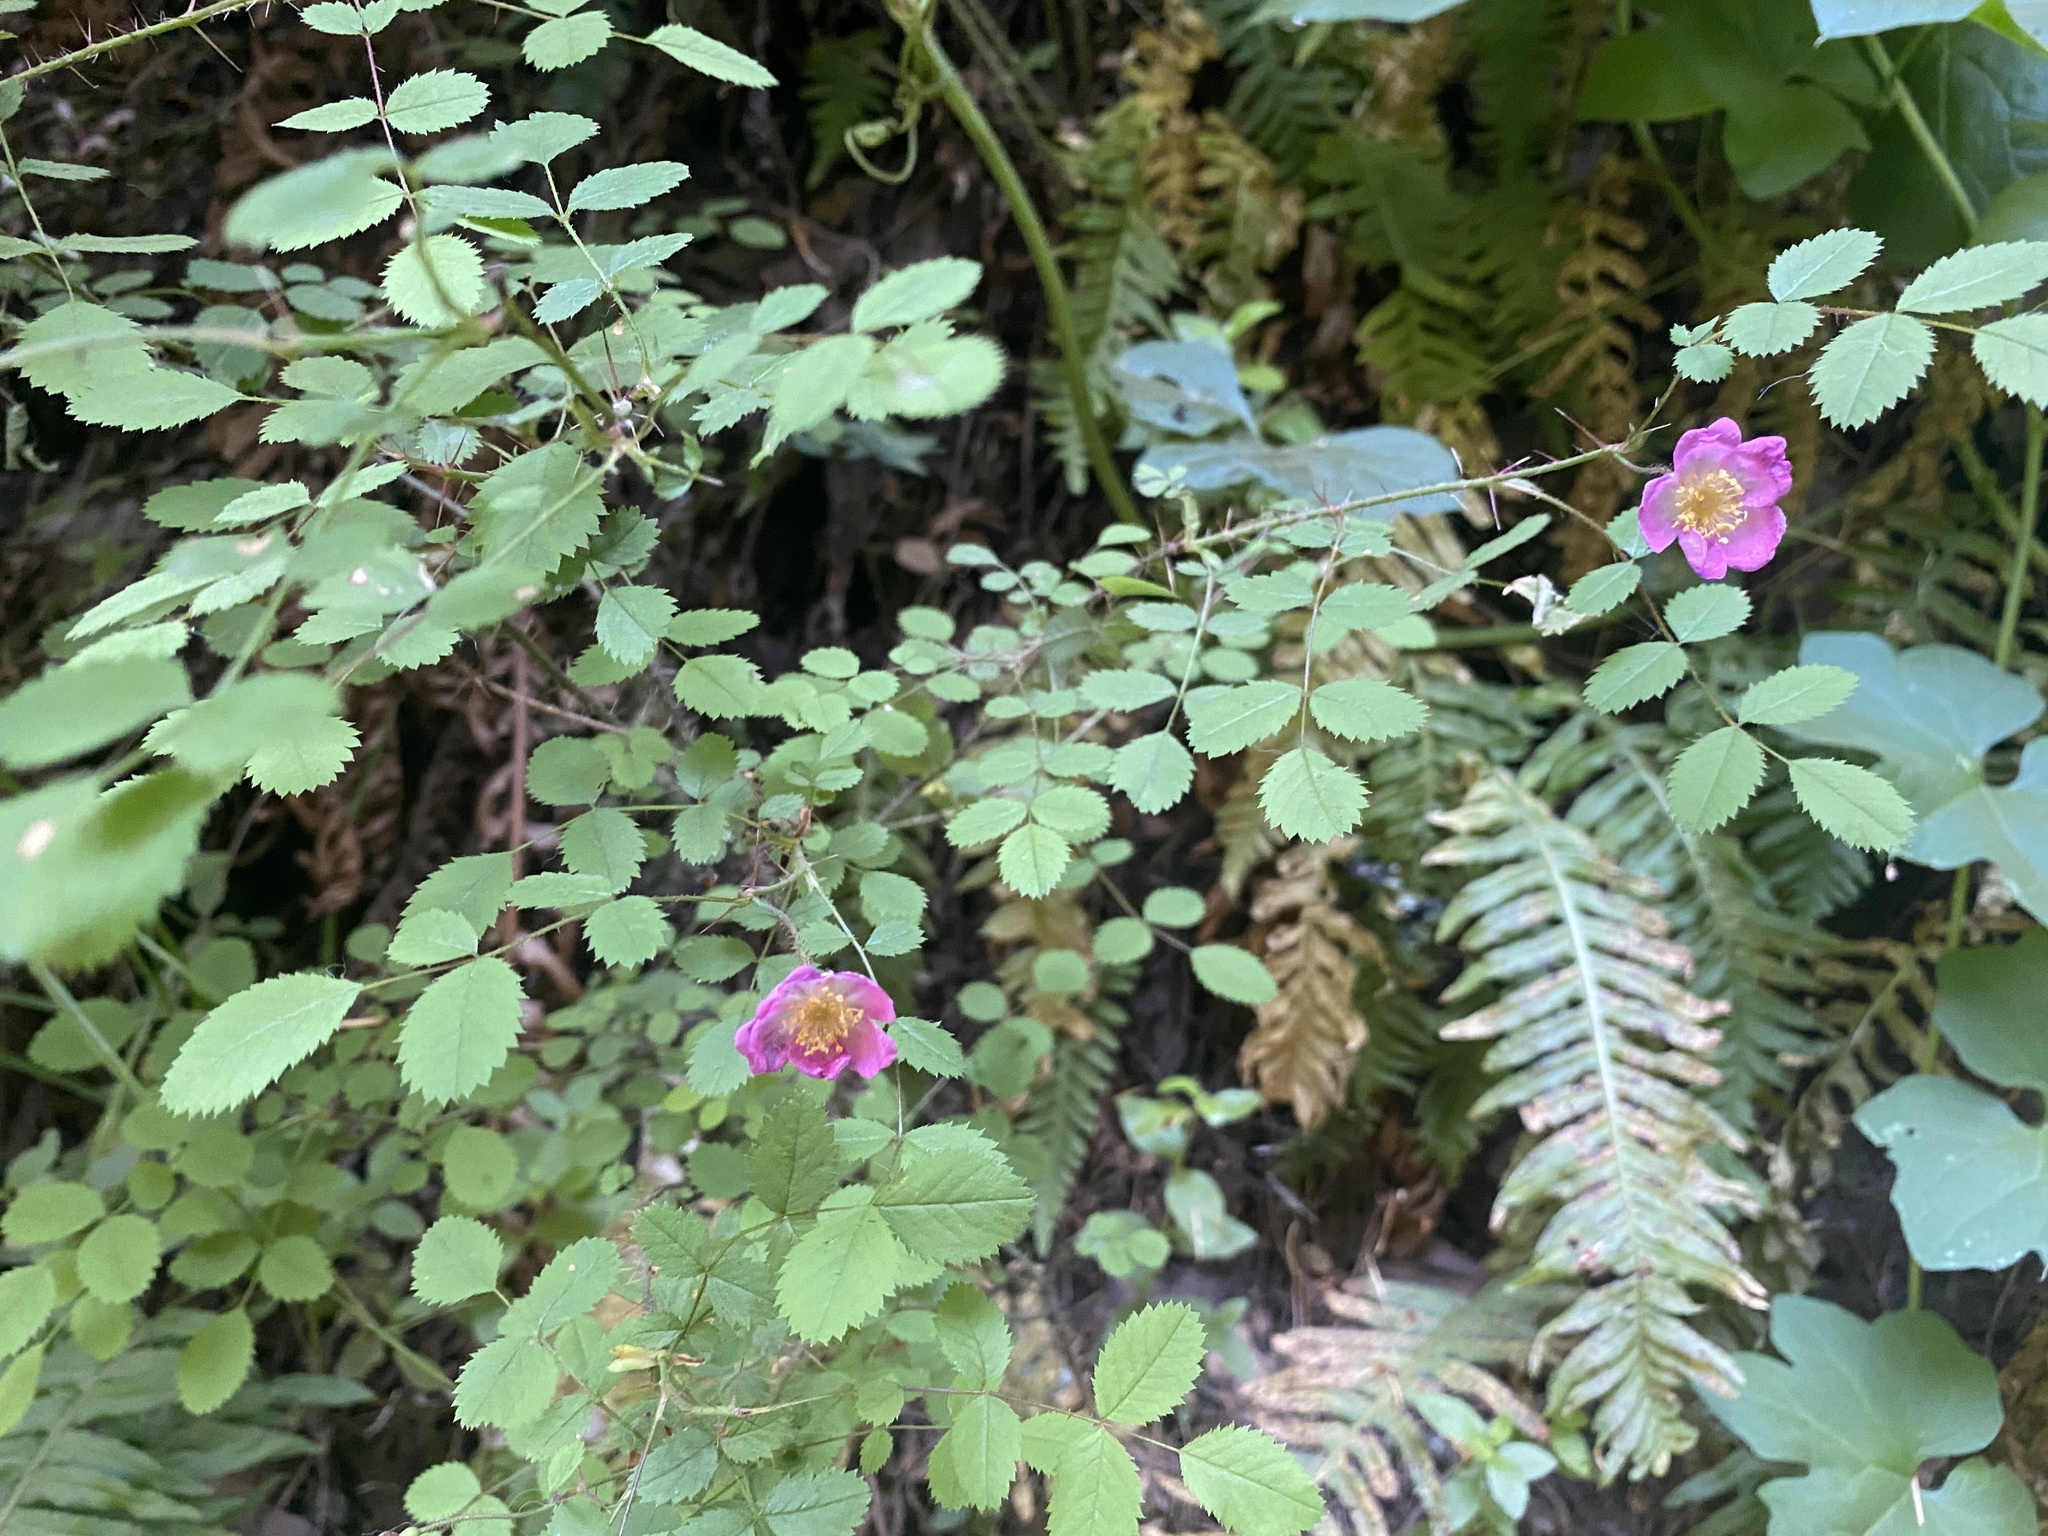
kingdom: Plantae
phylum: Tracheophyta
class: Magnoliopsida
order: Rosales
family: Rosaceae
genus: Rosa
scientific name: Rosa gymnocarpa
